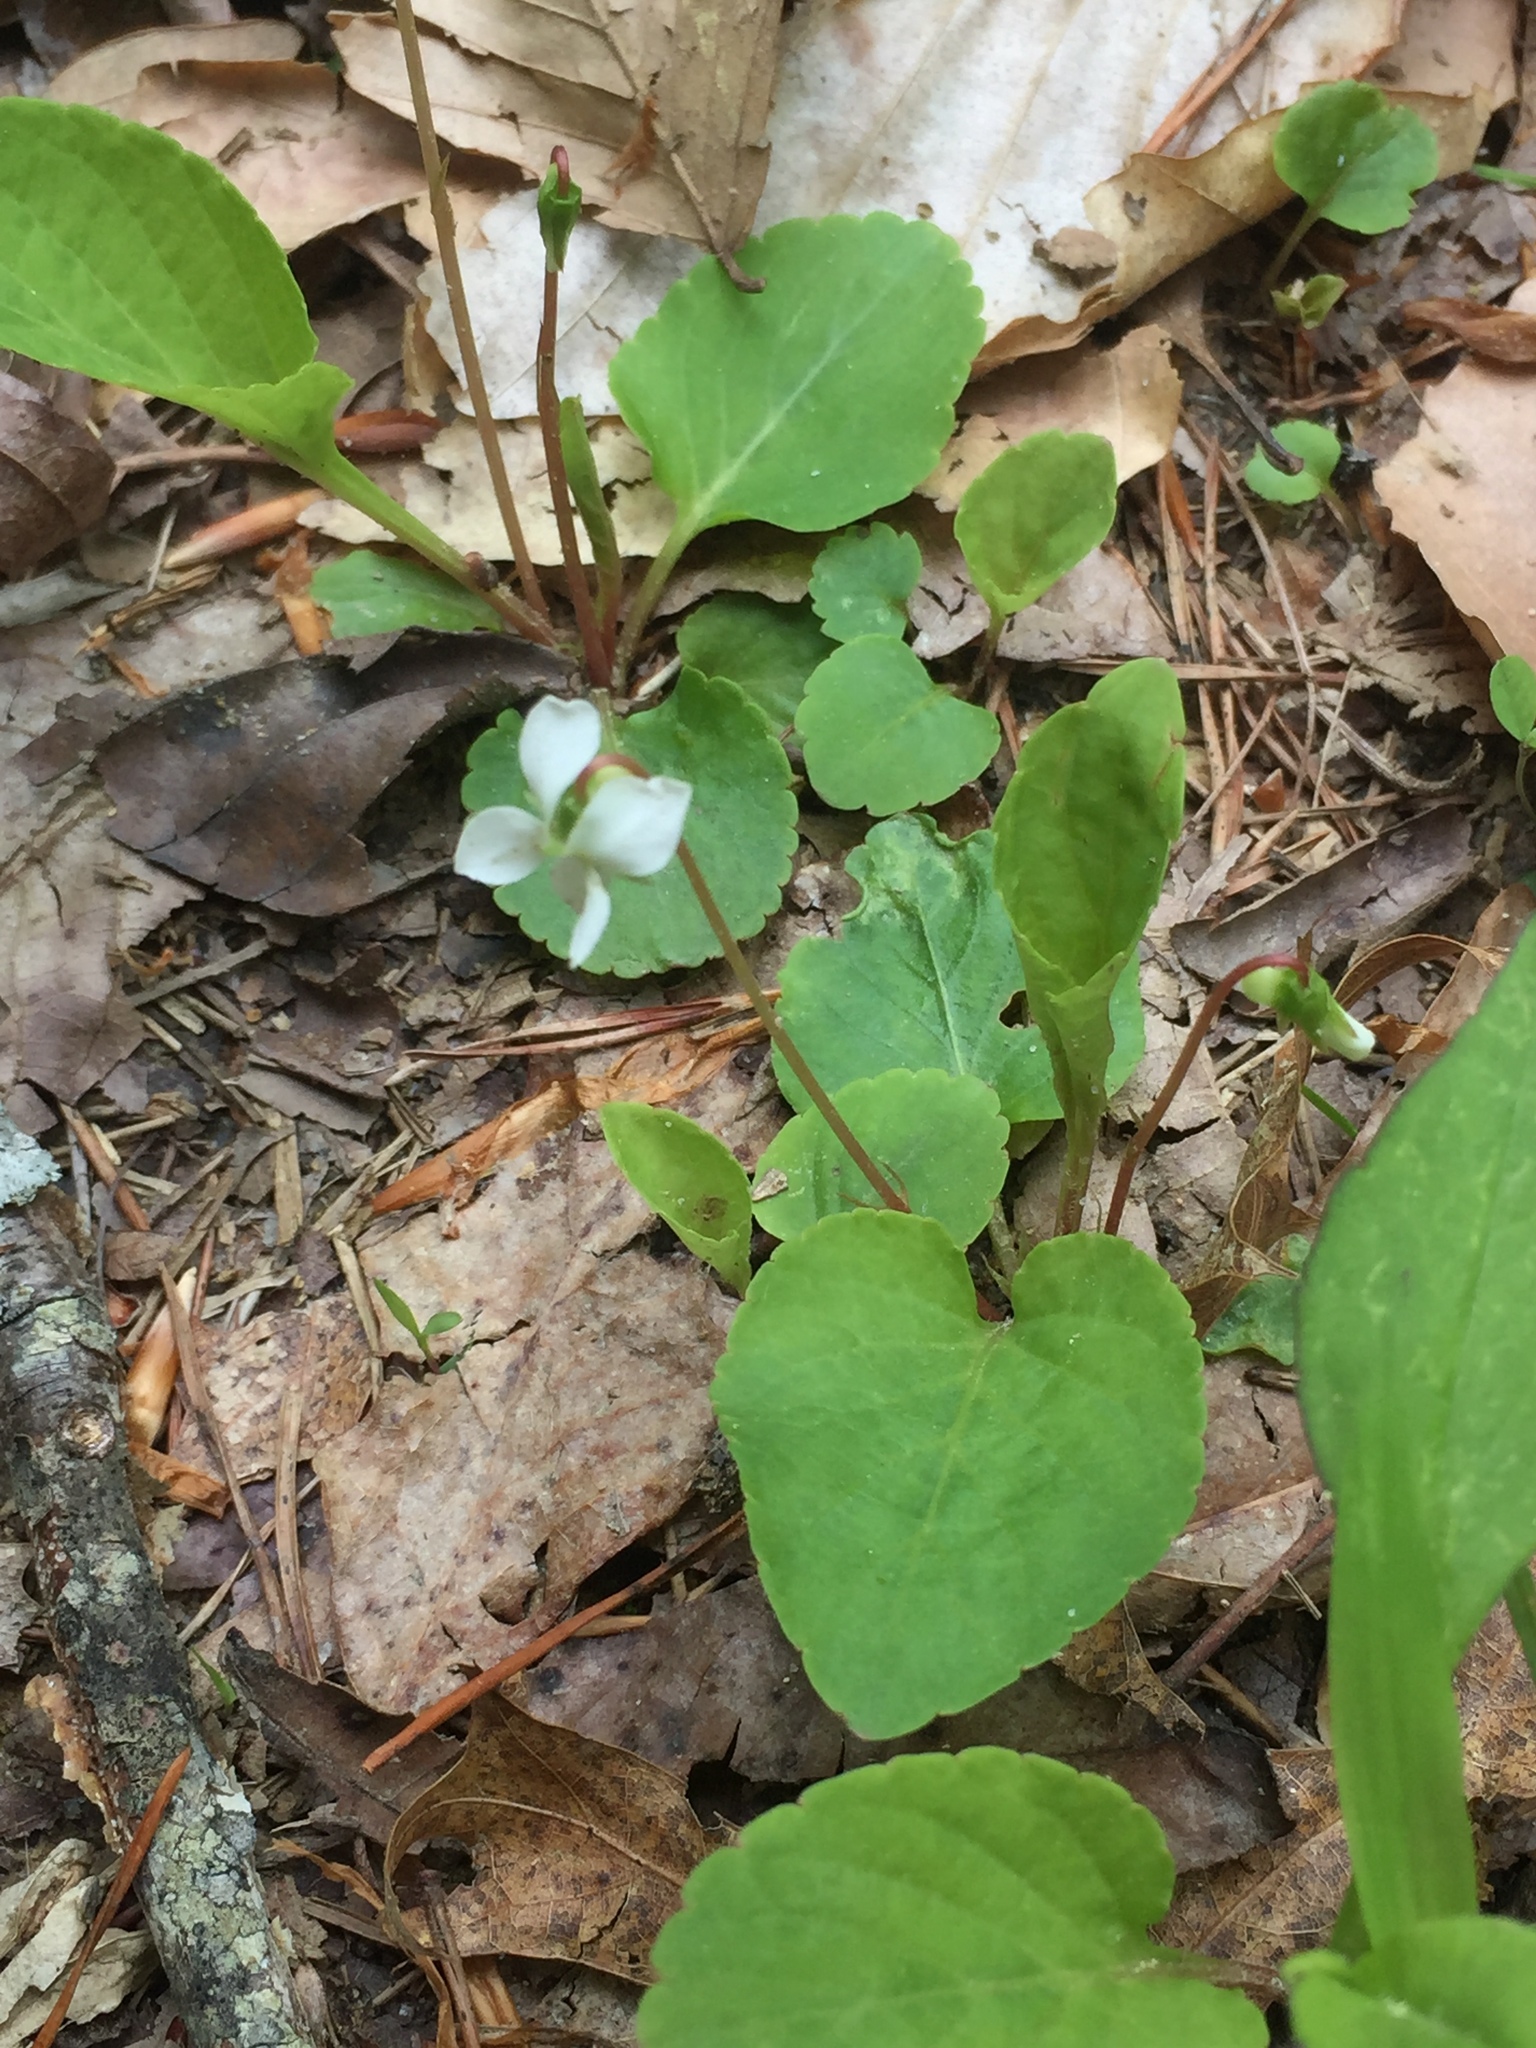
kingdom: Plantae
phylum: Tracheophyta
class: Magnoliopsida
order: Malpighiales
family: Violaceae
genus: Viola
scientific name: Viola blanda
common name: Sweet white violet
